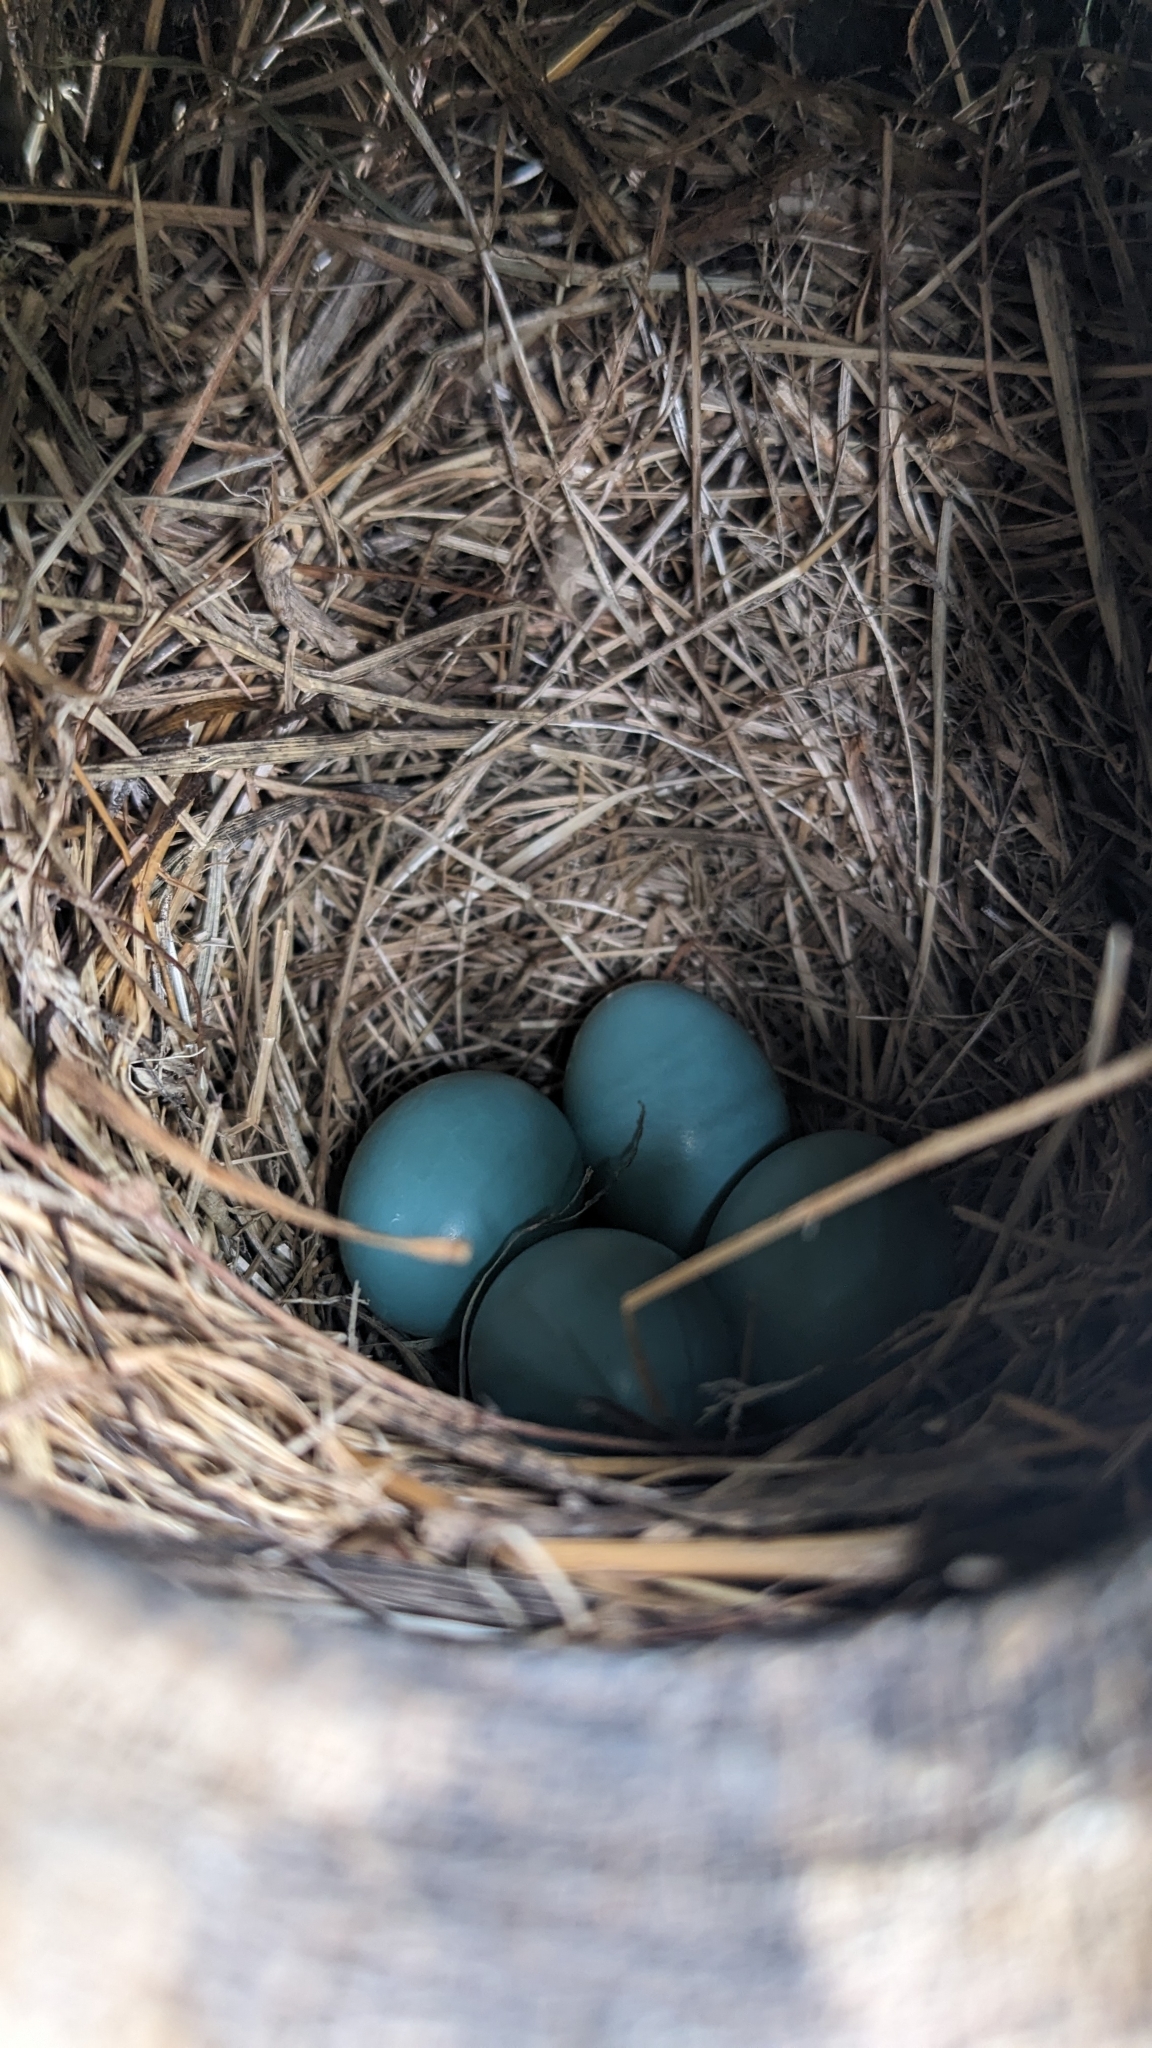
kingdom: Animalia
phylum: Chordata
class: Aves
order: Passeriformes
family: Turdidae
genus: Sialia
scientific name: Sialia sialis
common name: Eastern bluebird
